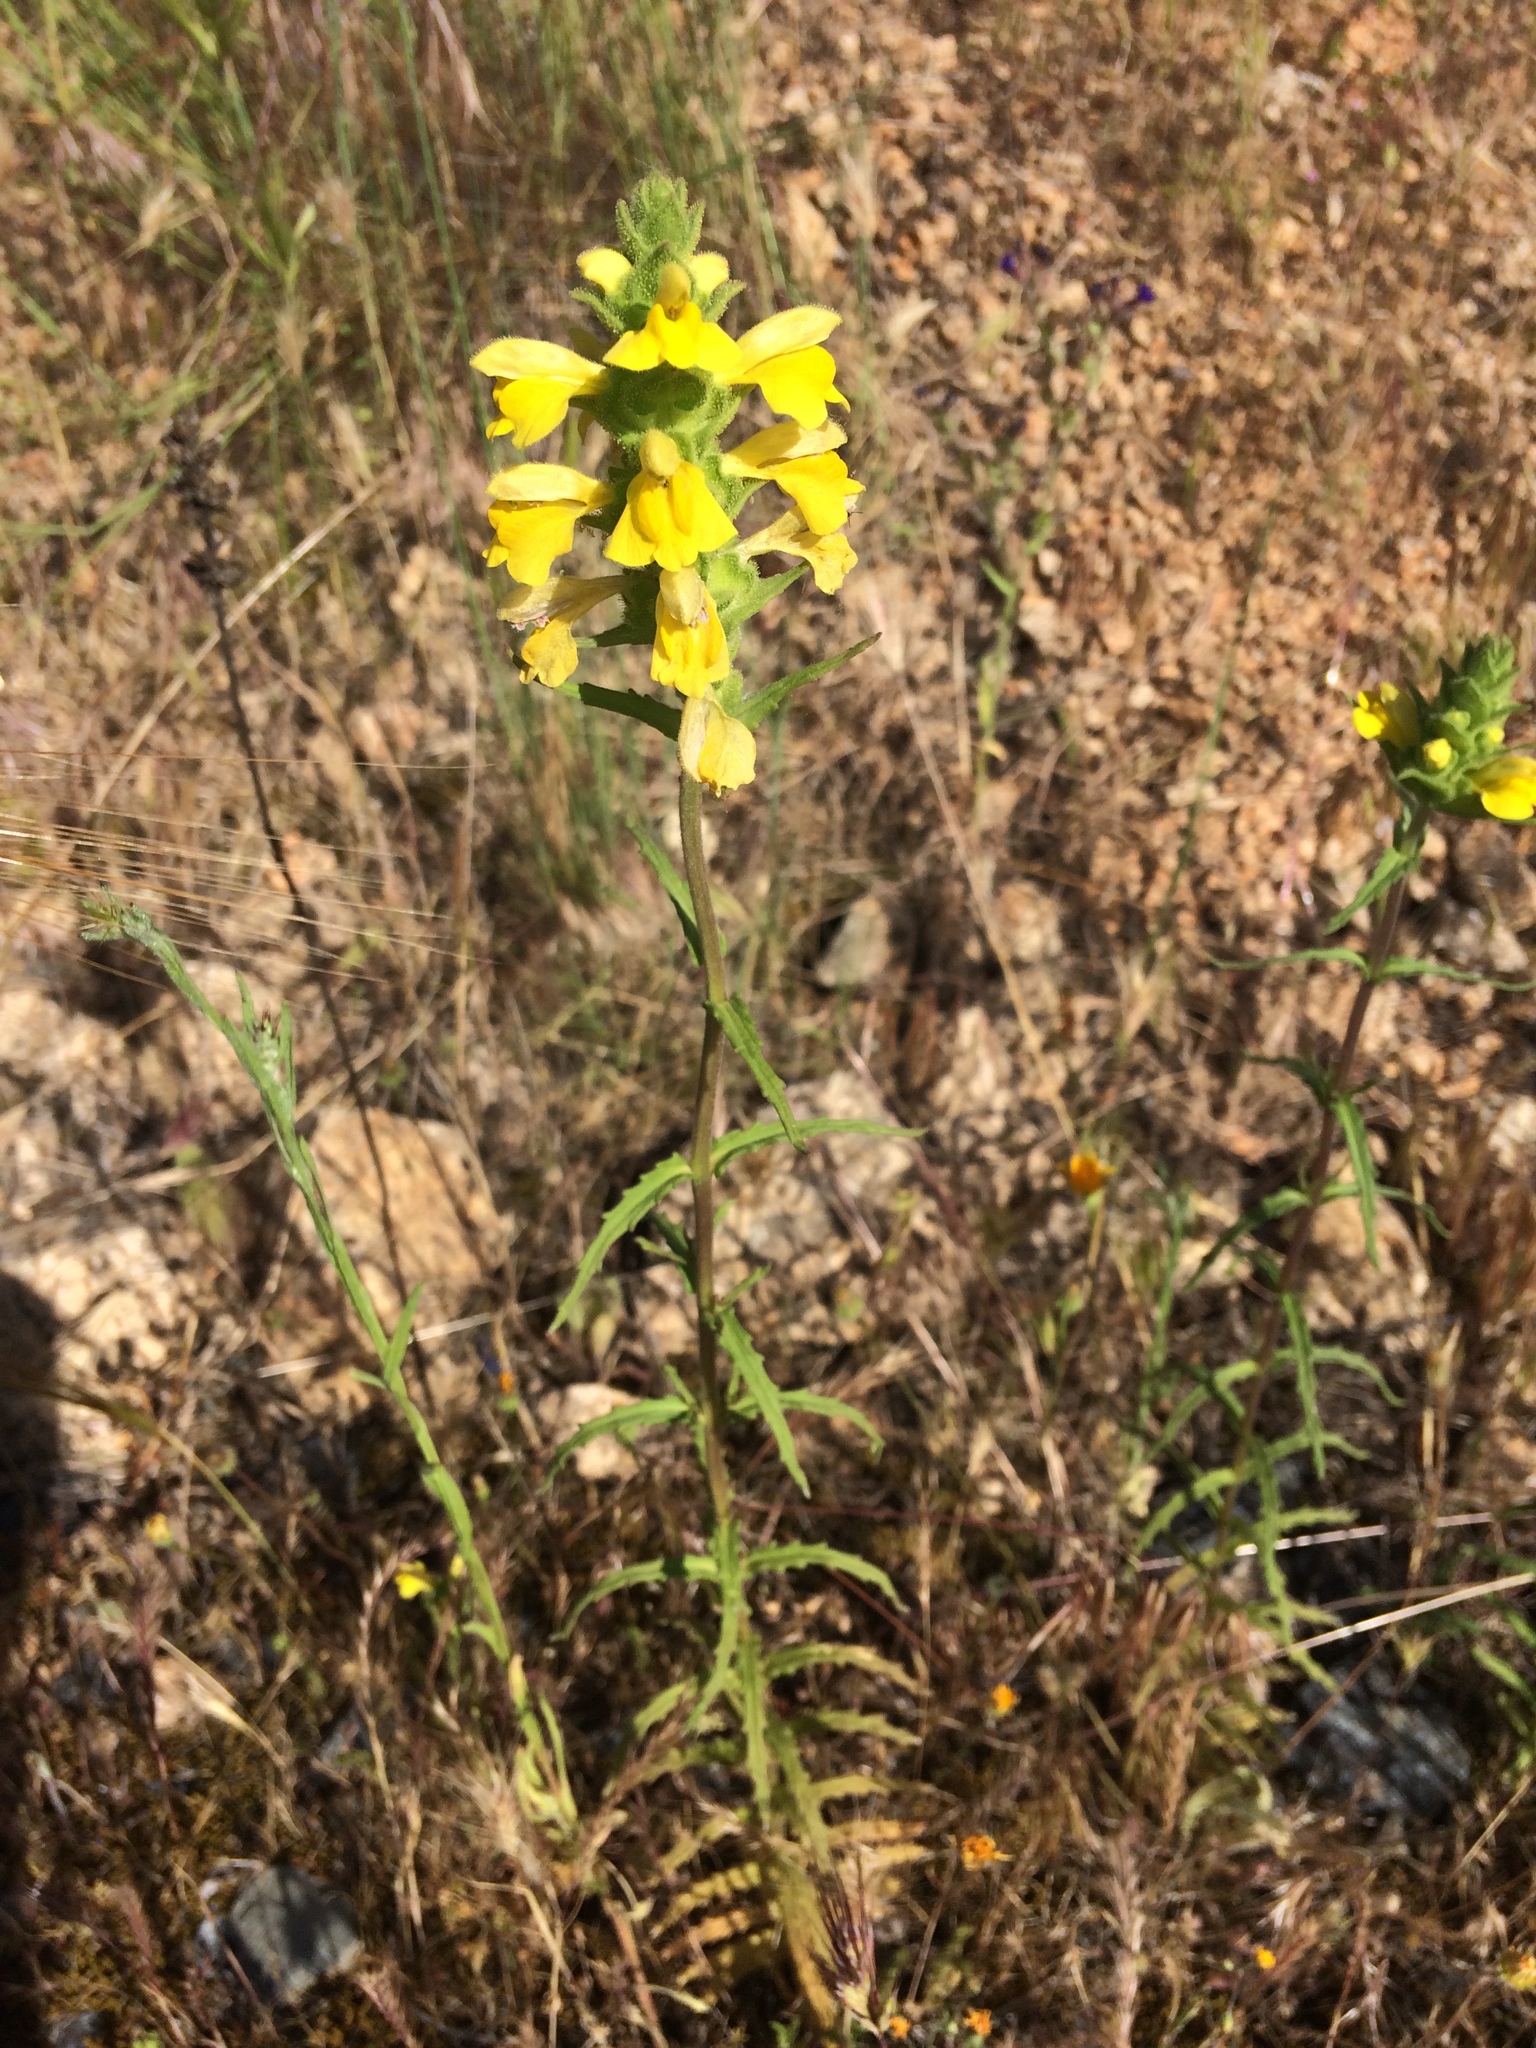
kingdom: Plantae
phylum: Tracheophyta
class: Magnoliopsida
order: Lamiales
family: Orobanchaceae
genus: Bellardia
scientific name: Bellardia trixago
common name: Mediterranean lineseed
